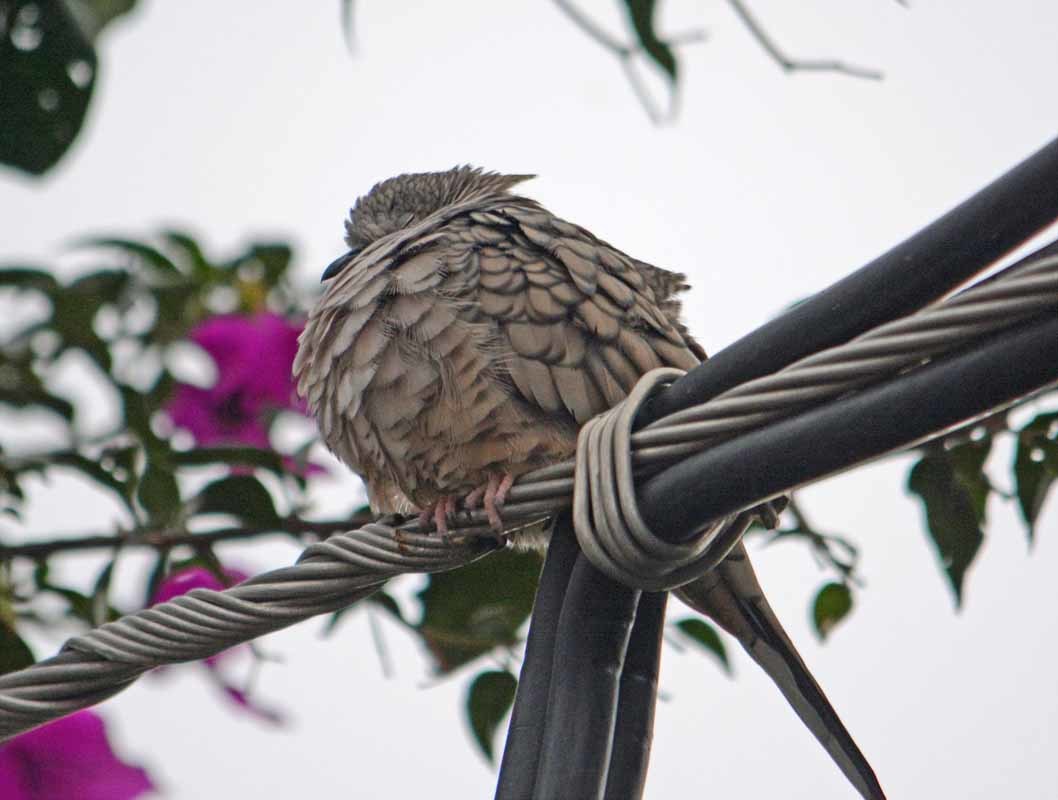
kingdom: Animalia
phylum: Chordata
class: Aves
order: Columbiformes
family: Columbidae
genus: Columbina
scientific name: Columbina inca
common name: Inca dove
